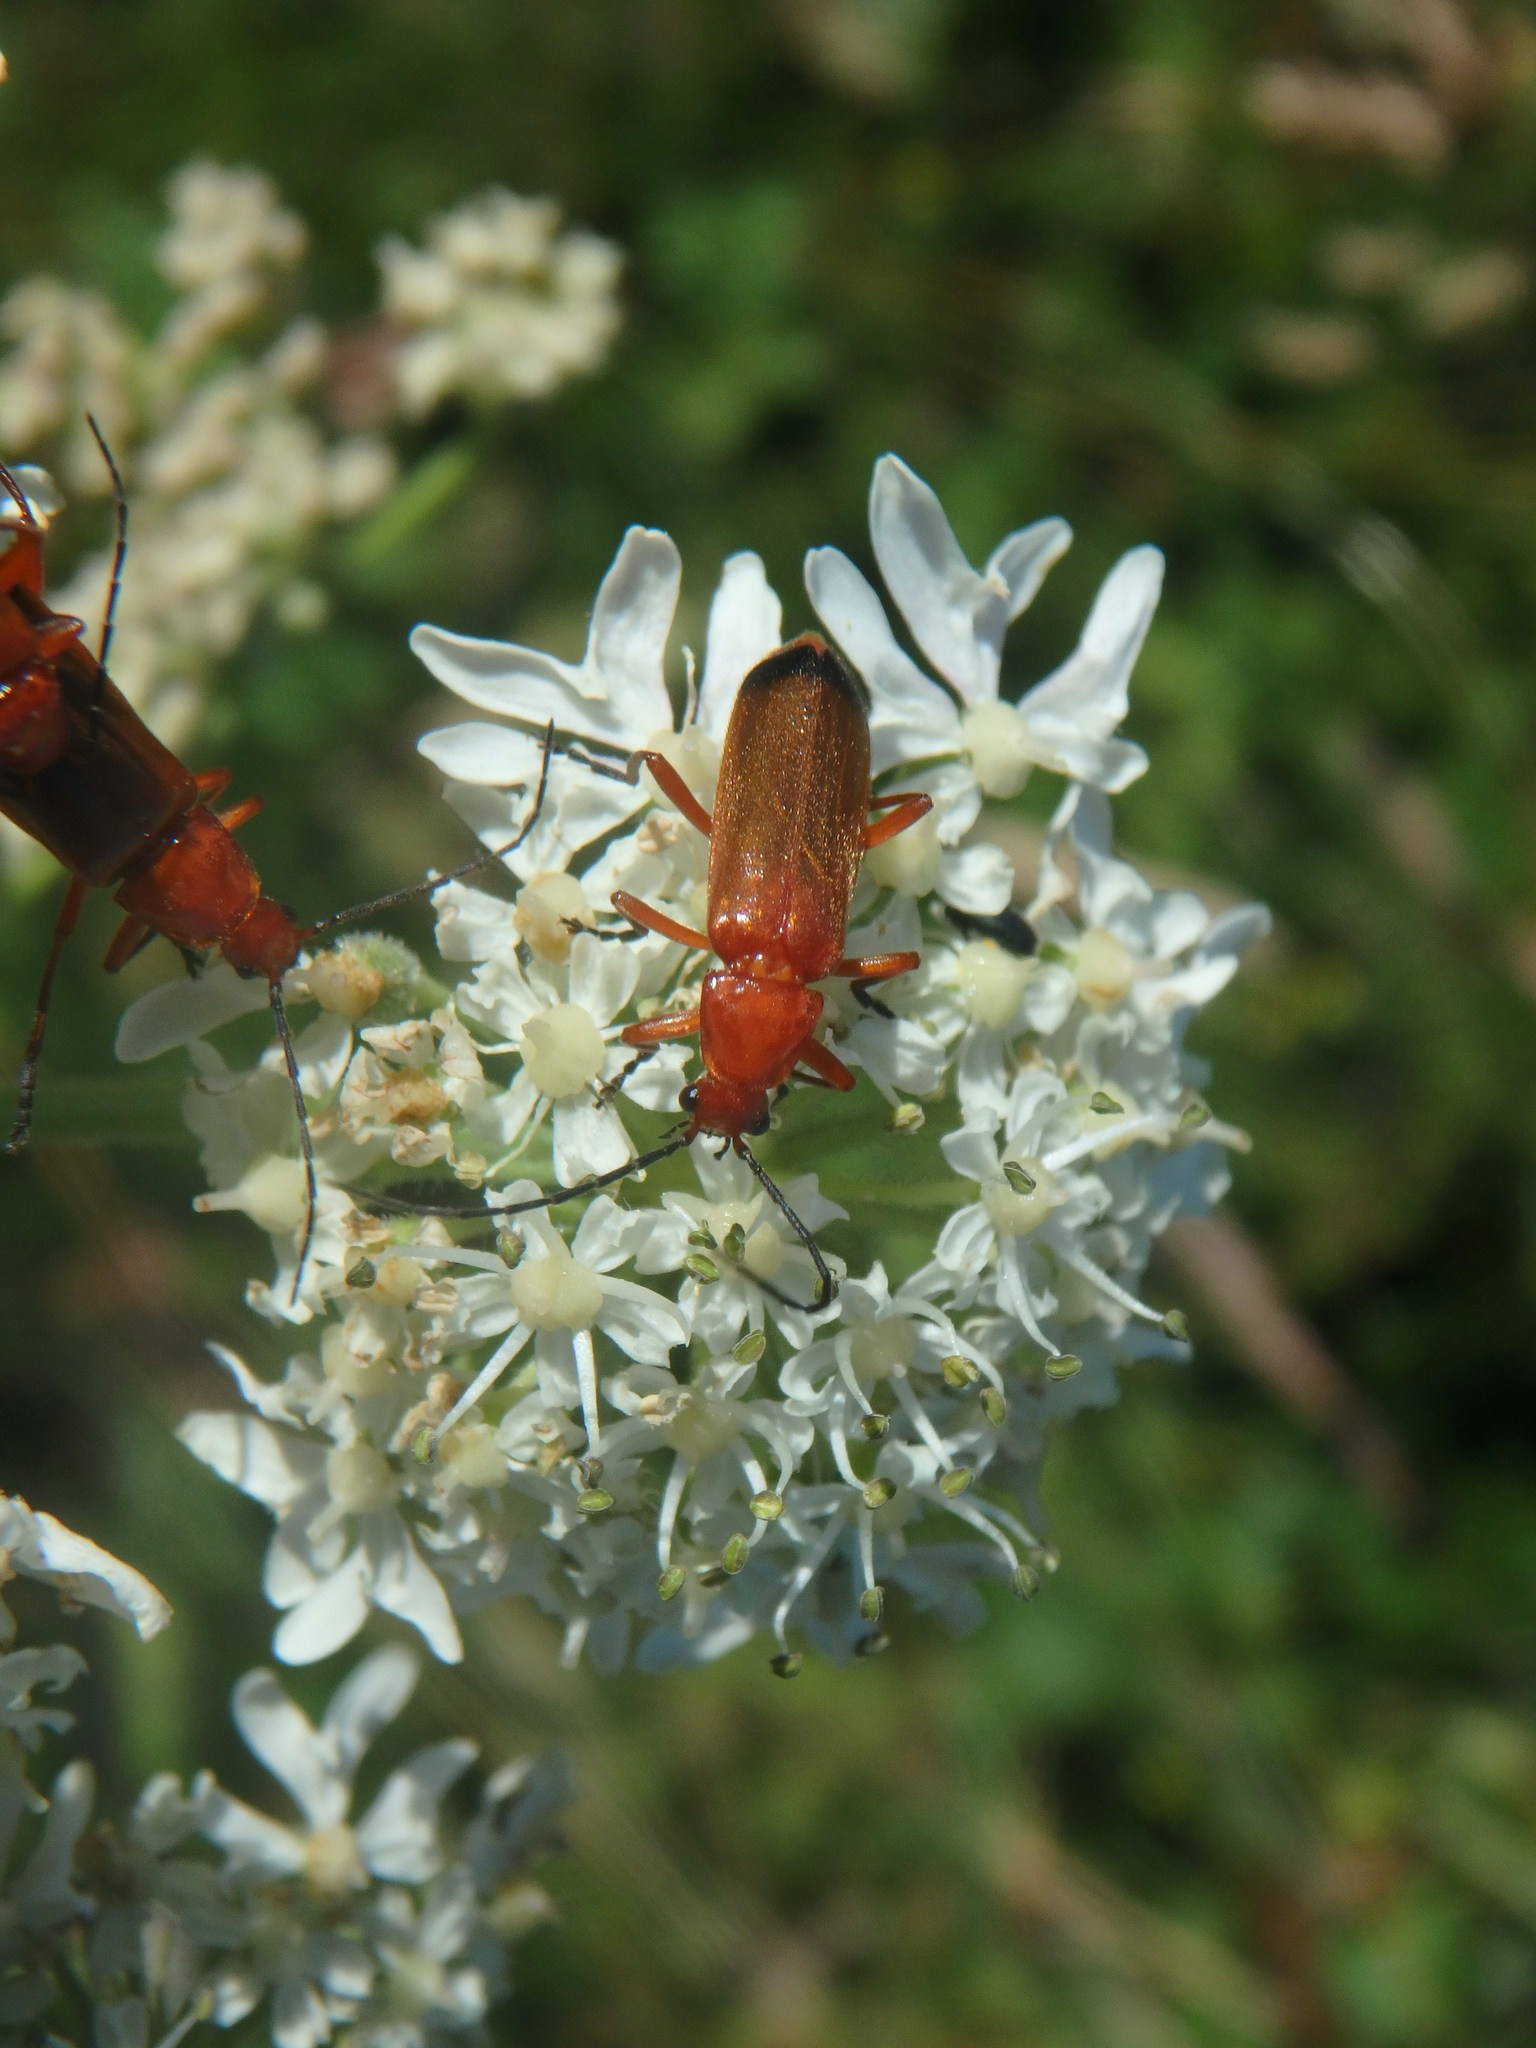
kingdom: Animalia
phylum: Arthropoda
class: Insecta
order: Coleoptera
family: Cantharidae
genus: Rhagonycha
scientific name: Rhagonycha fulva
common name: Common red soldier beetle
